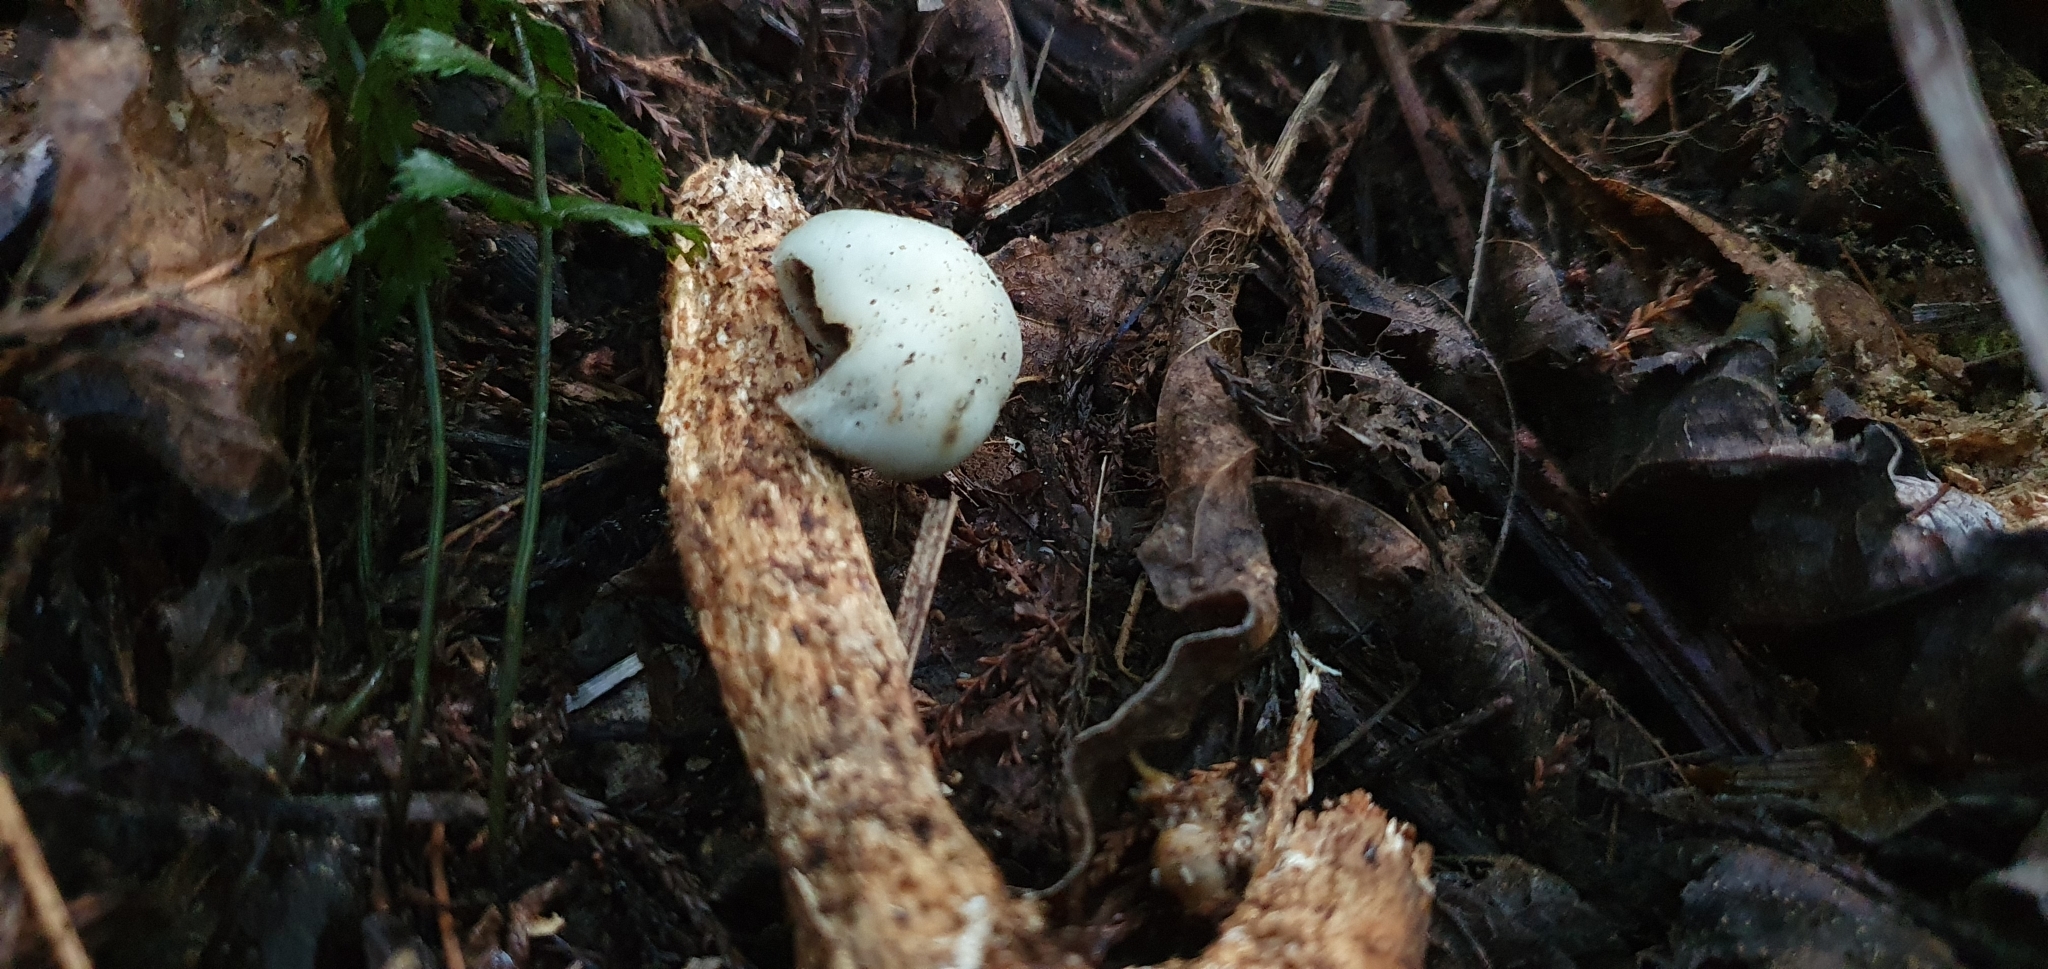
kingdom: Fungi
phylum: Basidiomycota
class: Agaricomycetes
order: Agaricales
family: Hymenogastraceae
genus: Psilocybe
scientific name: Psilocybe weraroa
